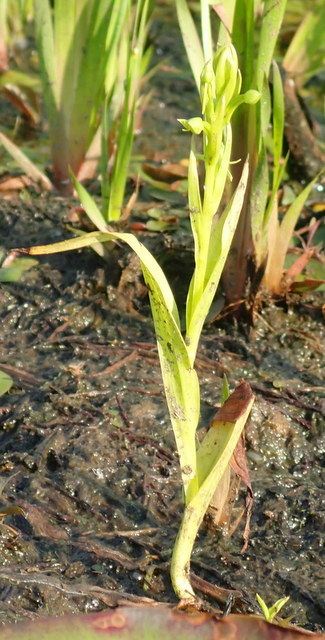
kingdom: Plantae
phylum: Tracheophyta
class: Liliopsida
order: Asparagales
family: Orchidaceae
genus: Habenaria
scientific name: Habenaria repens
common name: Water orchid
